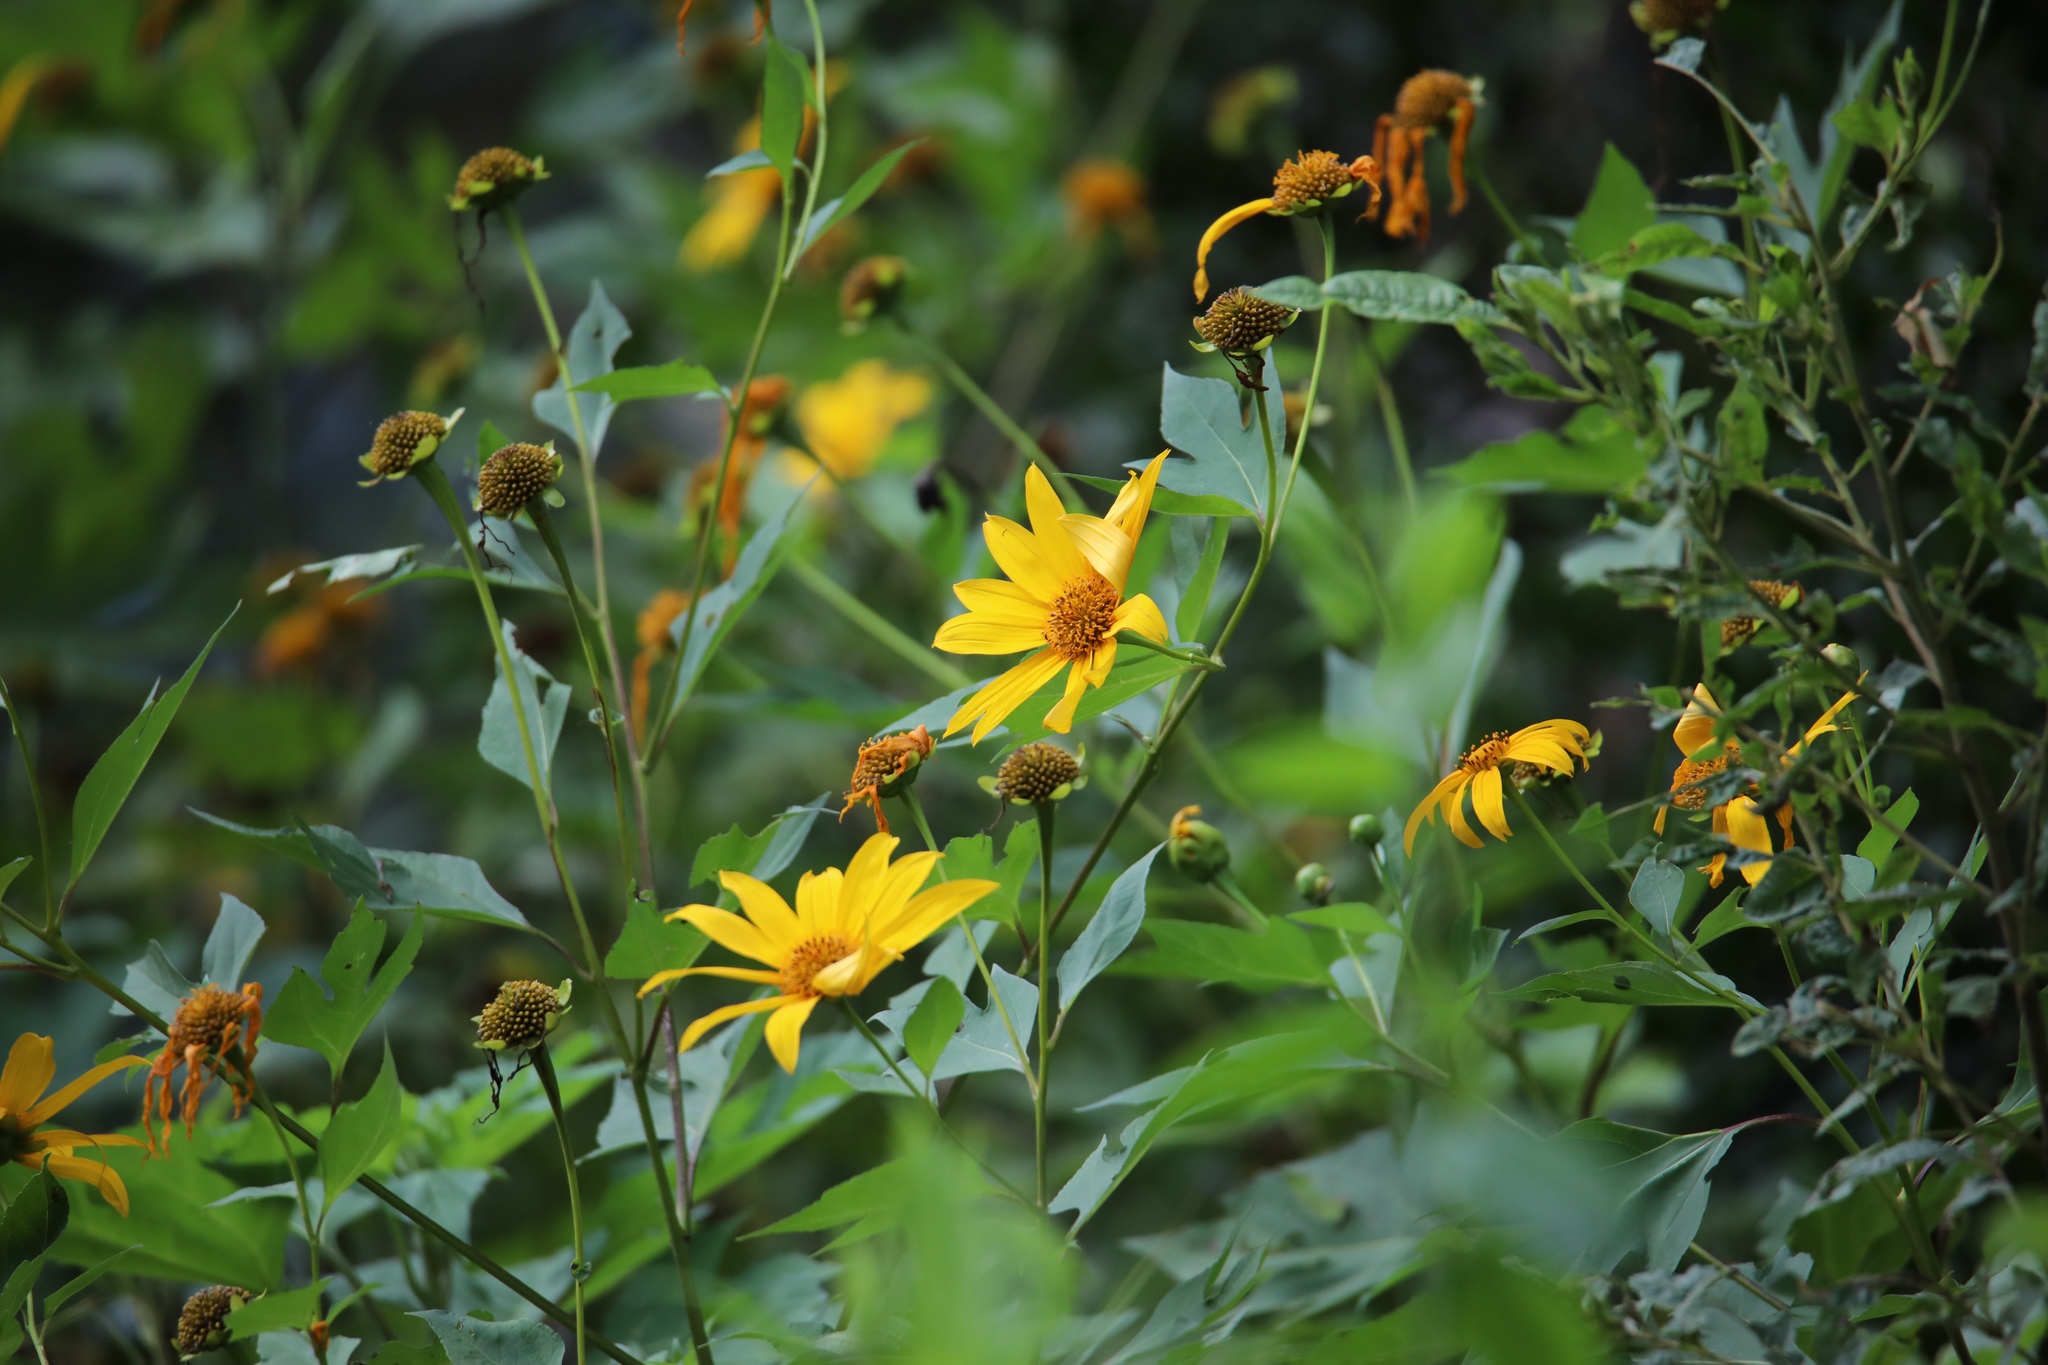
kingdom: Plantae
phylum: Tracheophyta
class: Magnoliopsida
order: Asterales
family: Asteraceae
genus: Tithonia
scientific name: Tithonia diversifolia
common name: Tree marigold
